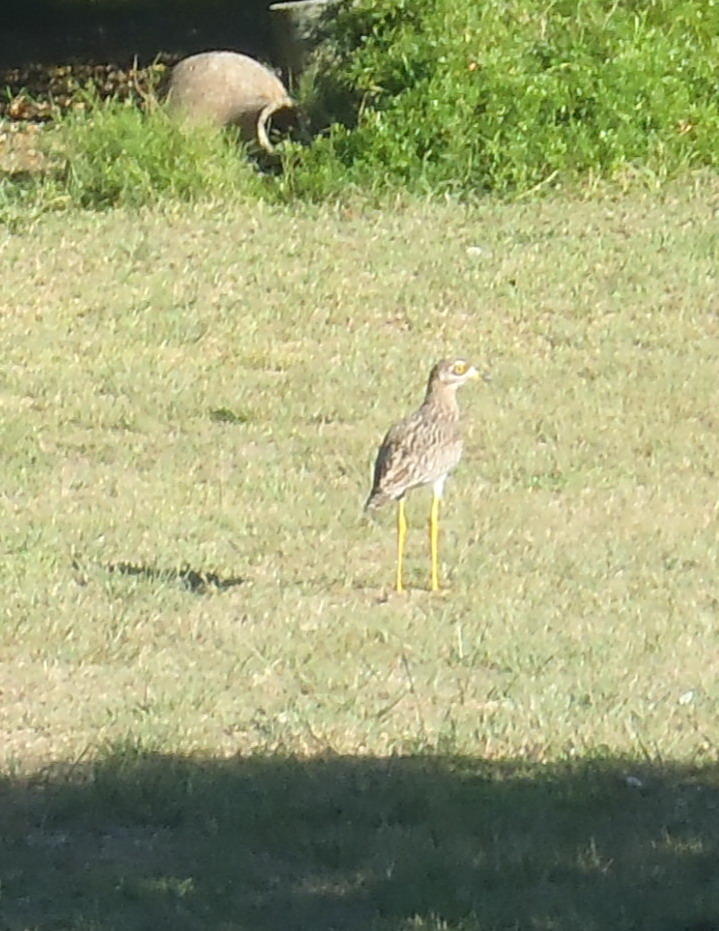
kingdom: Animalia
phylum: Chordata
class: Aves
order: Charadriiformes
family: Burhinidae
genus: Burhinus
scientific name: Burhinus capensis
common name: Spotted thick-knee
